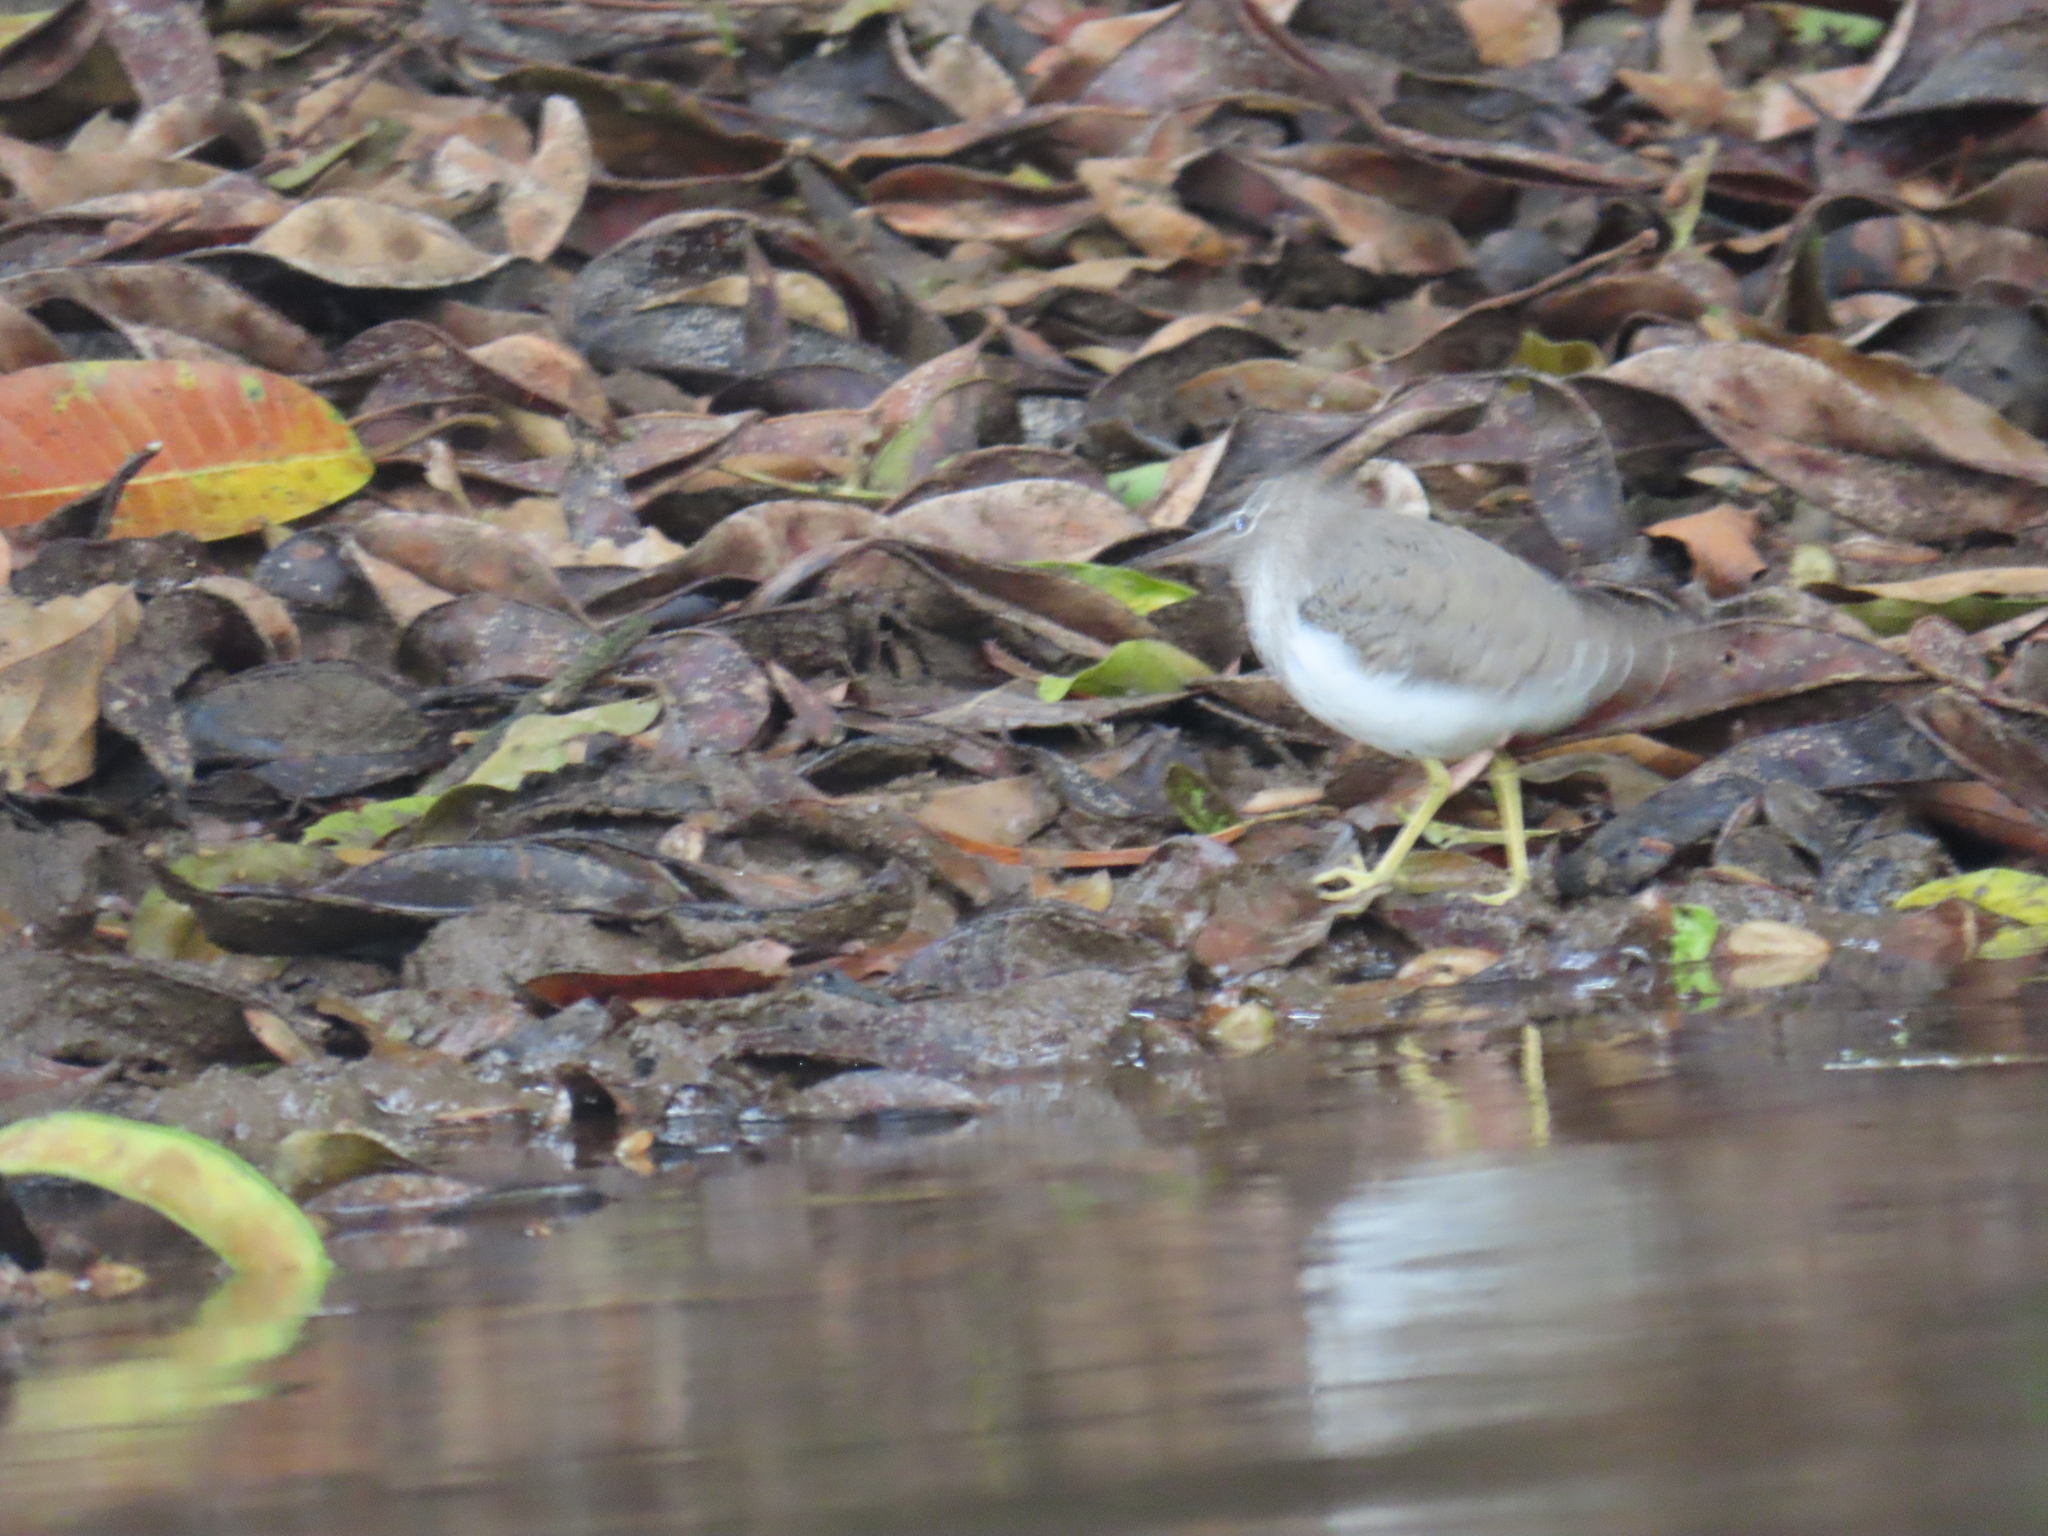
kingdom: Animalia
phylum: Chordata
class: Aves
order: Charadriiformes
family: Scolopacidae
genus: Actitis
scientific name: Actitis macularius
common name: Spotted sandpiper
